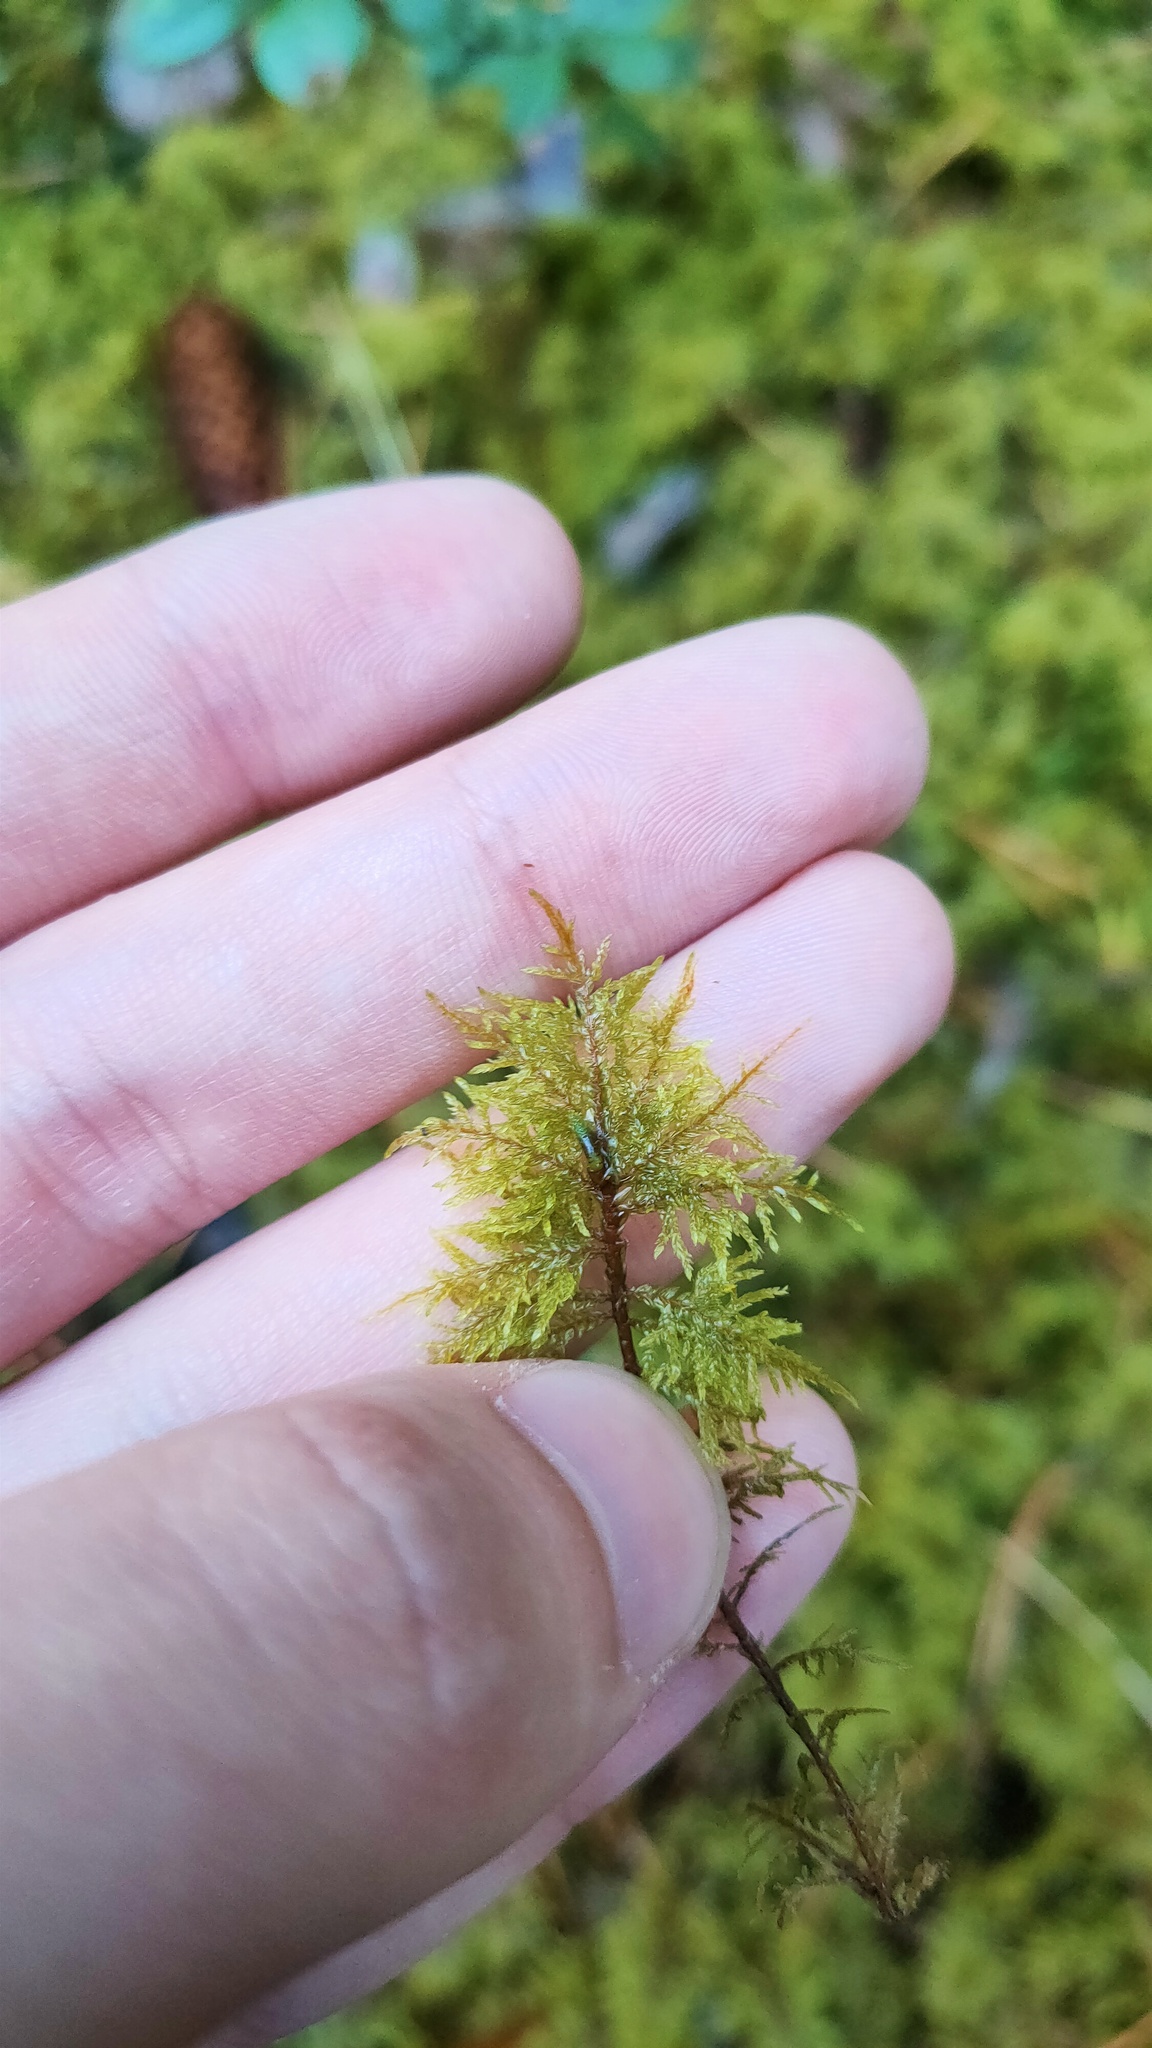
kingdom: Plantae
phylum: Bryophyta
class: Bryopsida
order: Hypnales
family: Hylocomiaceae
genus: Hylocomium
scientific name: Hylocomium splendens
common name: Stairstep moss
